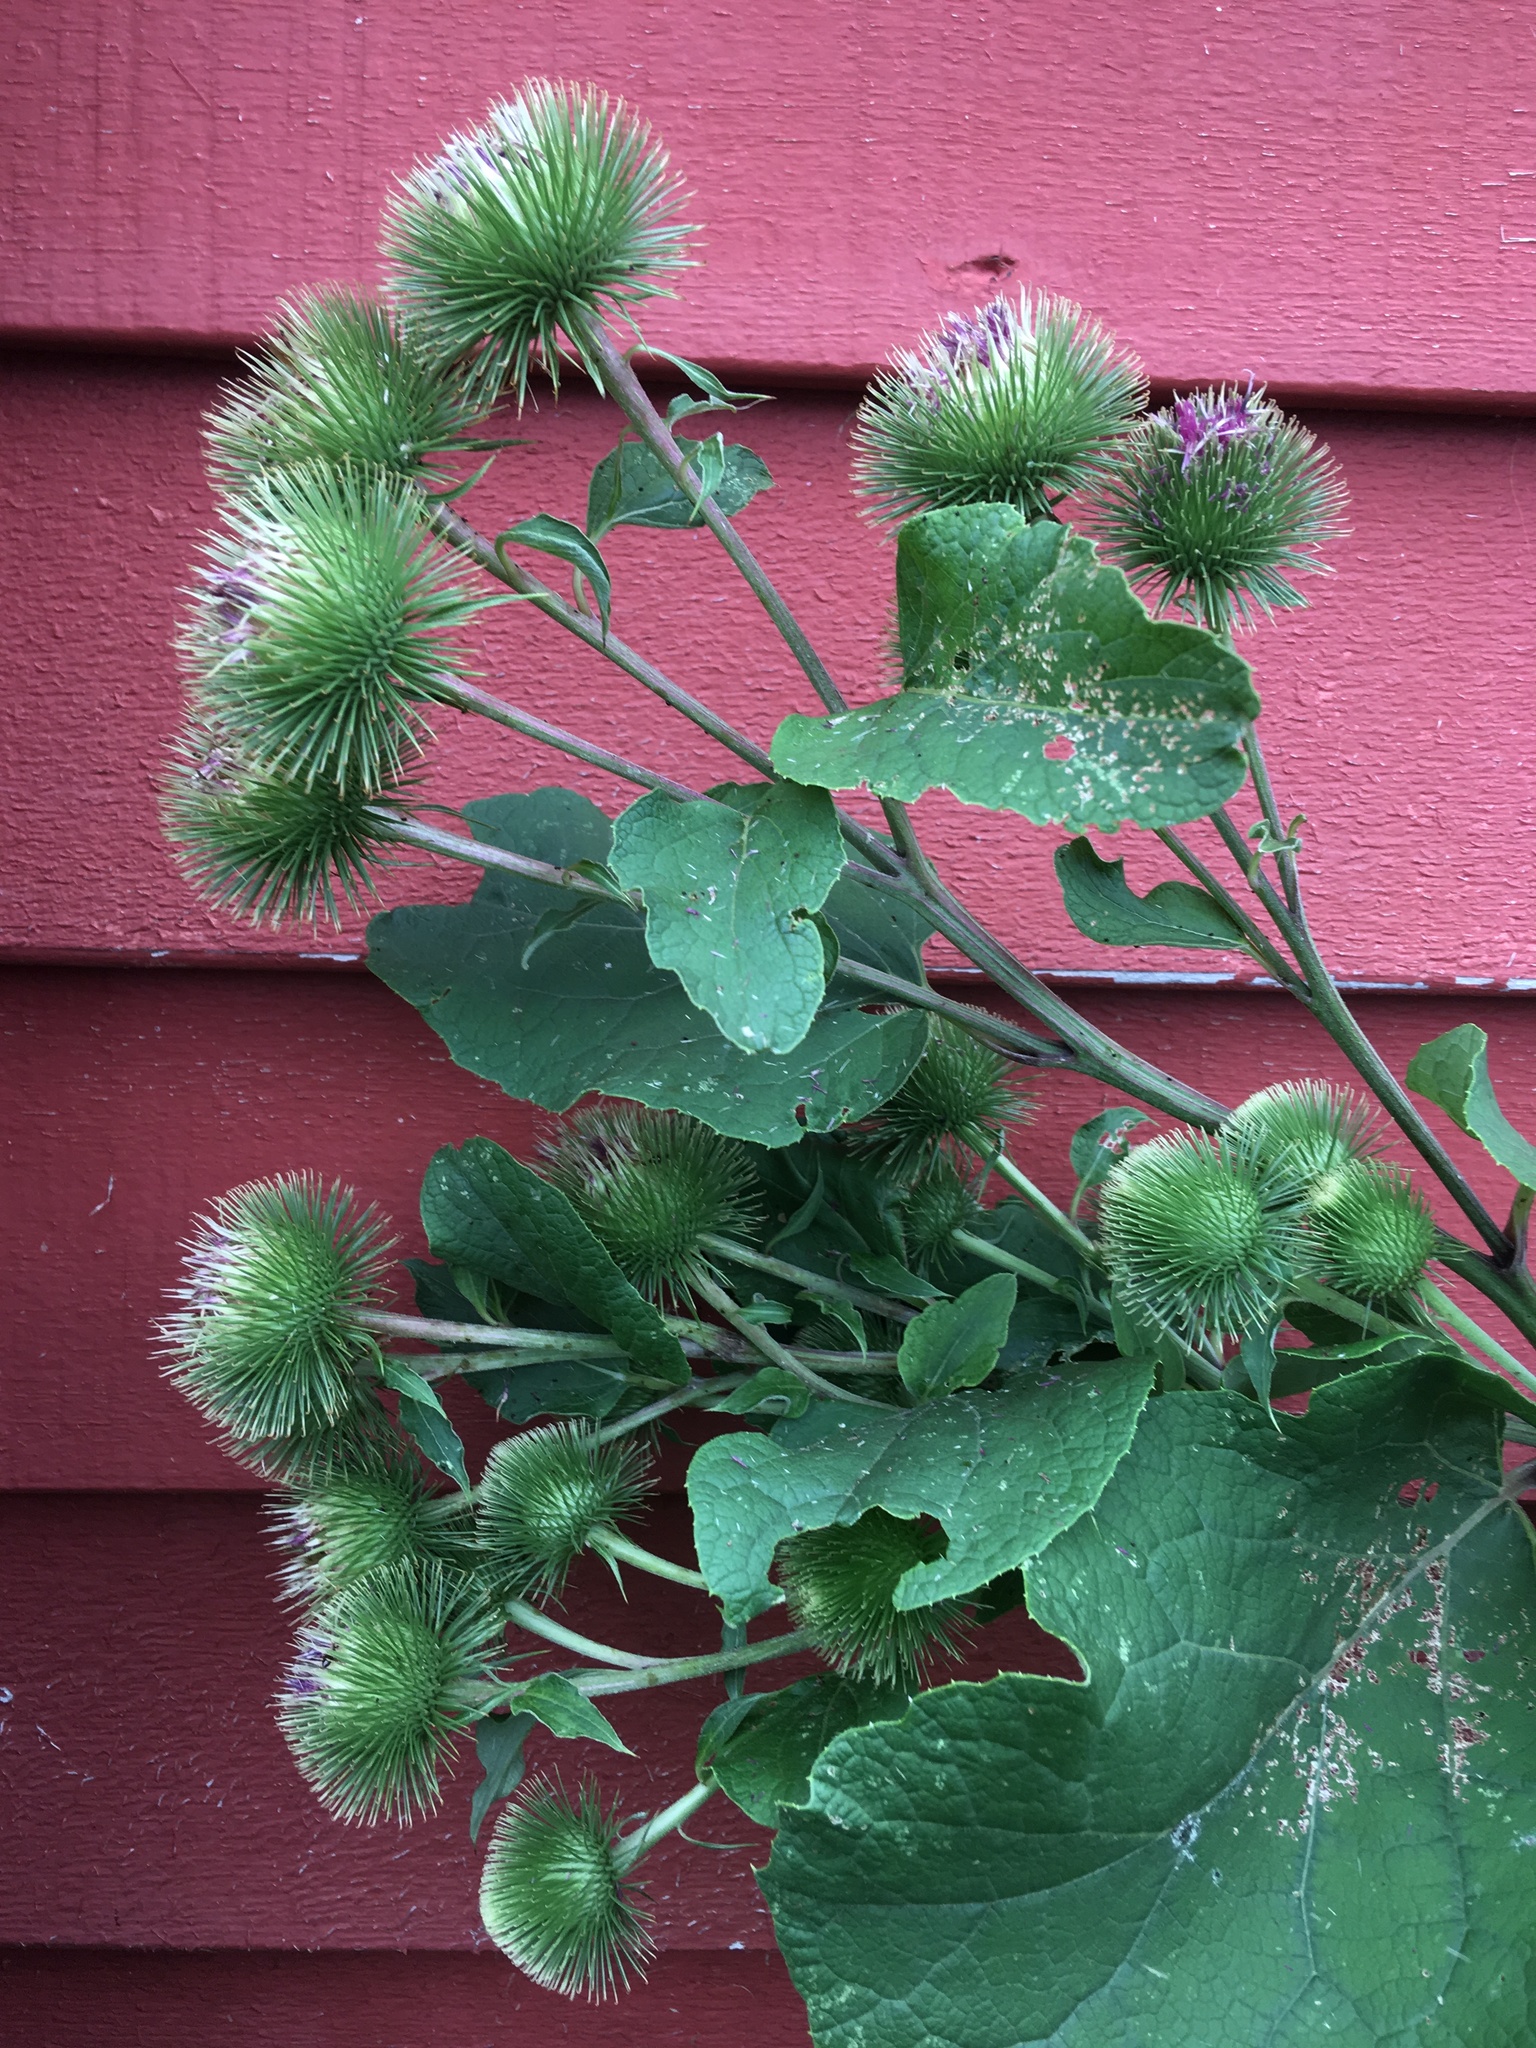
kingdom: Plantae
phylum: Tracheophyta
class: Magnoliopsida
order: Asterales
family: Asteraceae
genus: Arctium
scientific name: Arctium lappa
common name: Greater burdock
